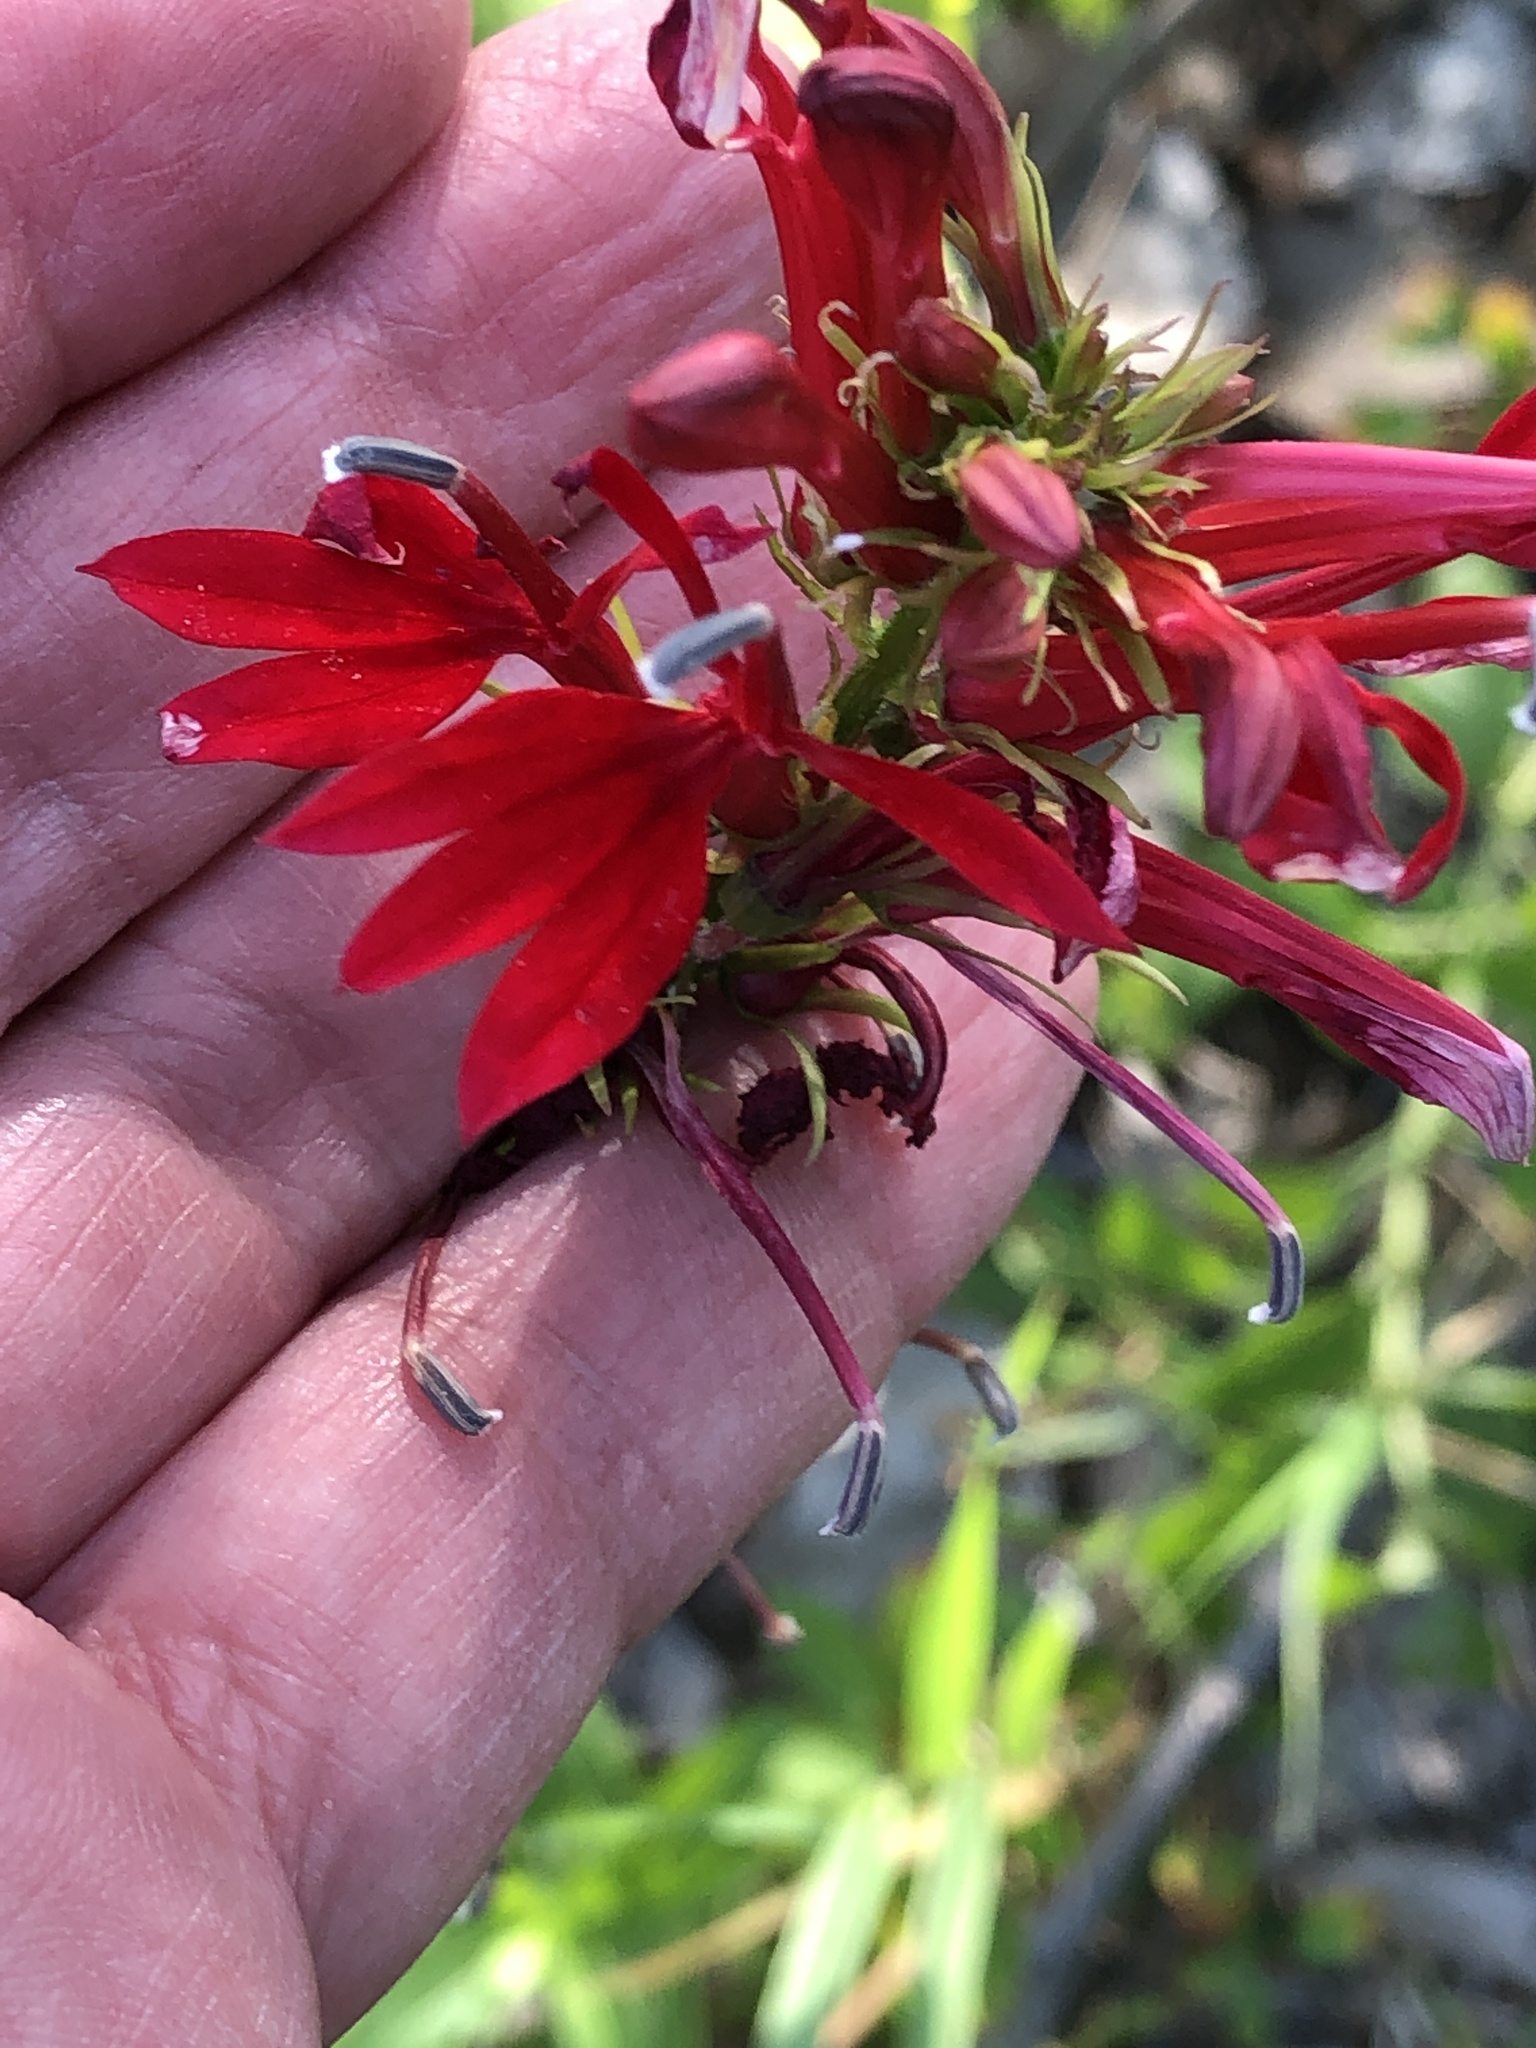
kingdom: Plantae
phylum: Tracheophyta
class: Magnoliopsida
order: Asterales
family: Campanulaceae
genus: Lobelia
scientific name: Lobelia cardinalis
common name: Cardinal flower
